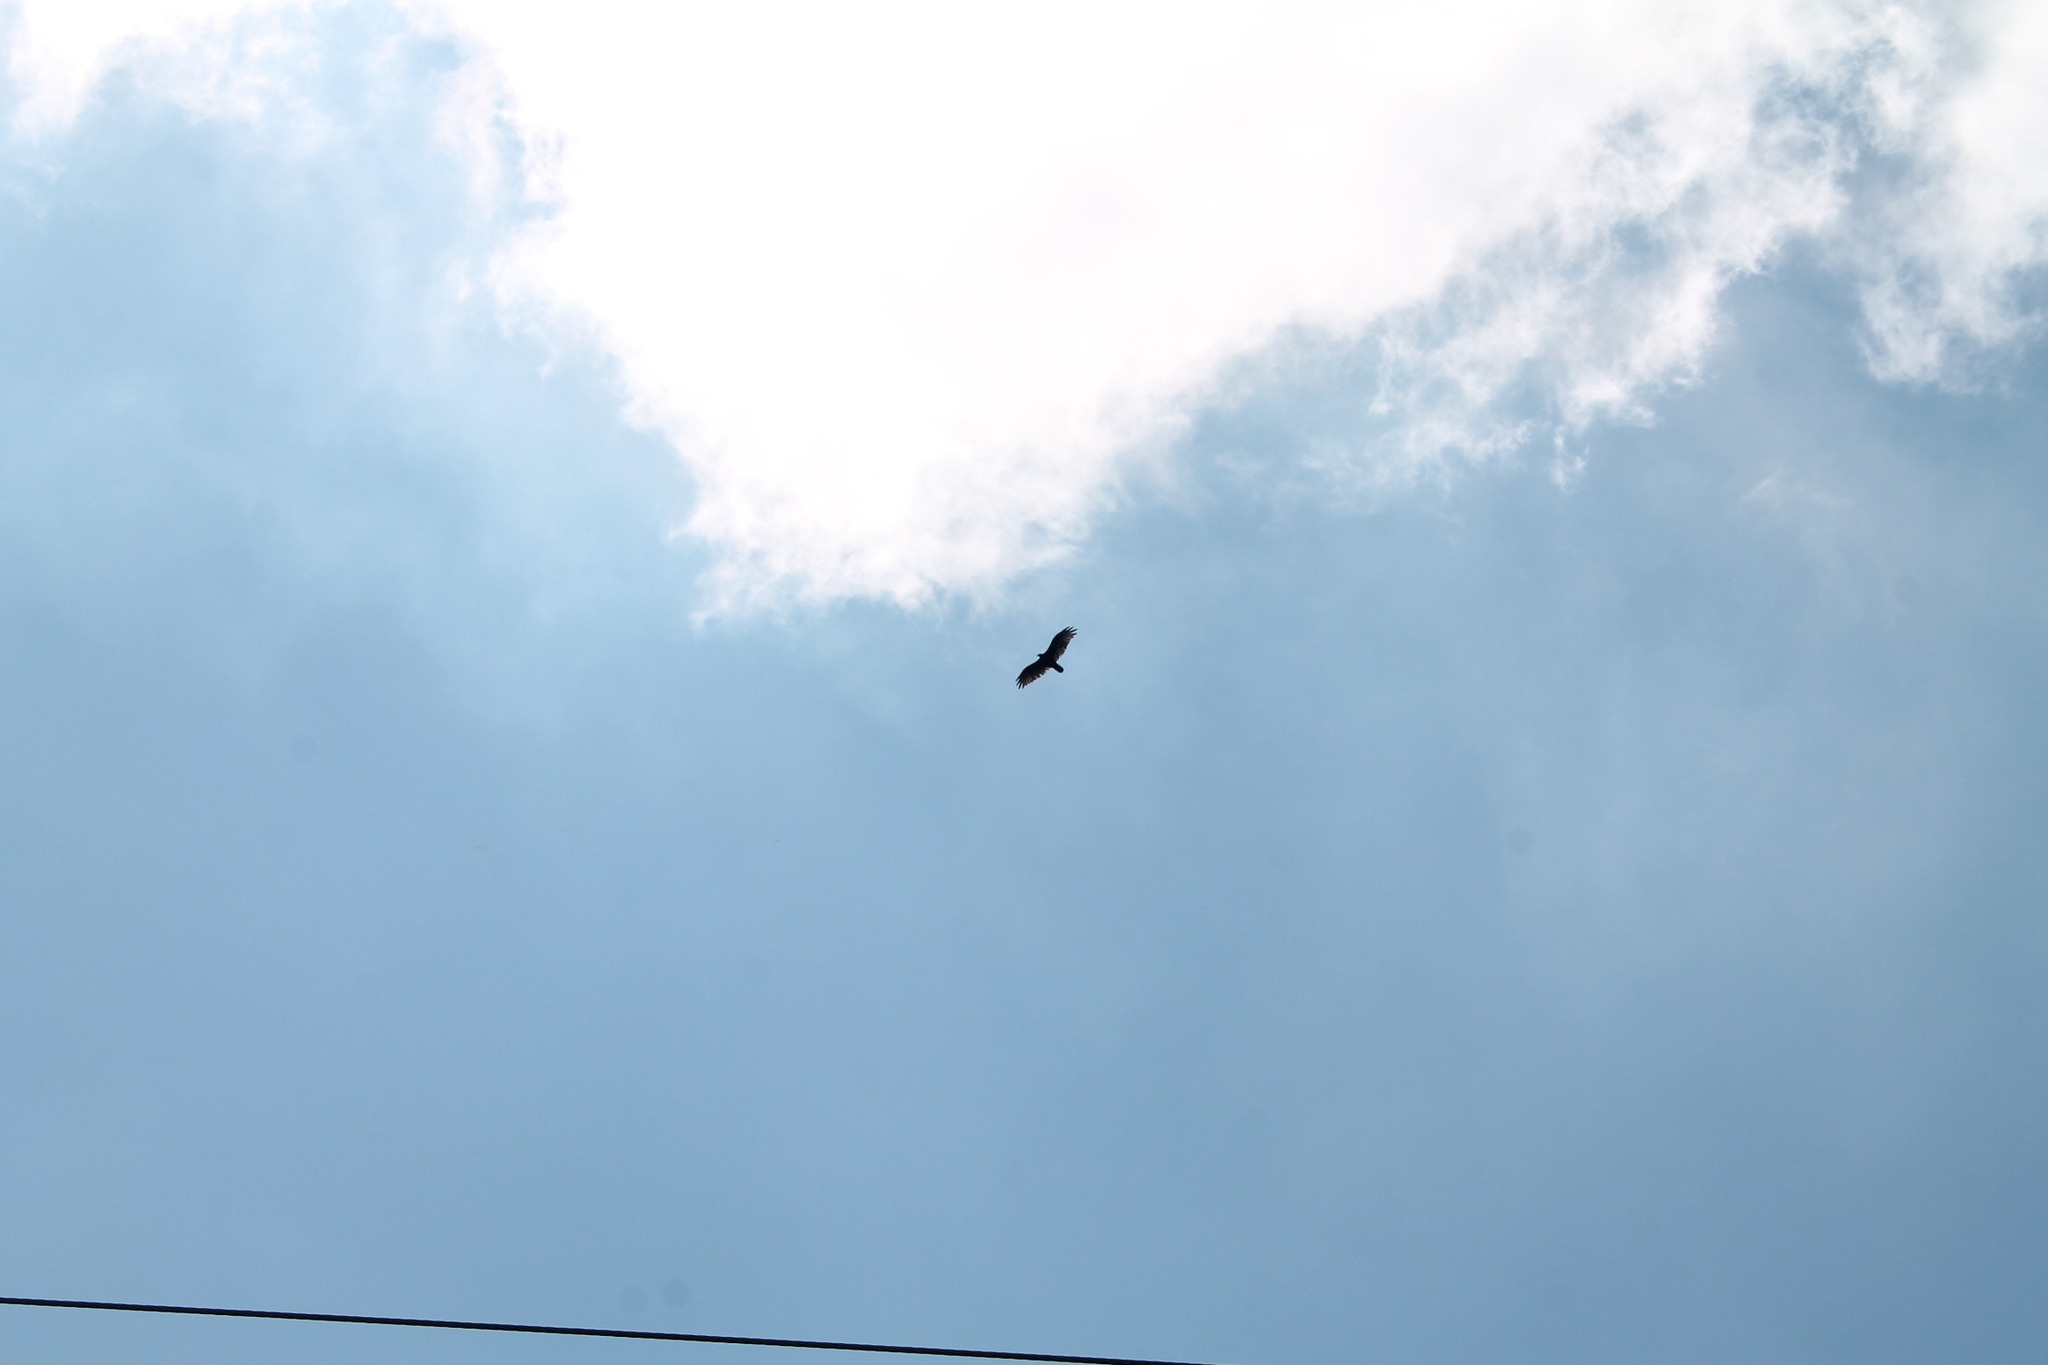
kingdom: Animalia
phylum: Chordata
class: Aves
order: Accipitriformes
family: Cathartidae
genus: Cathartes
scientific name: Cathartes aura
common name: Turkey vulture
